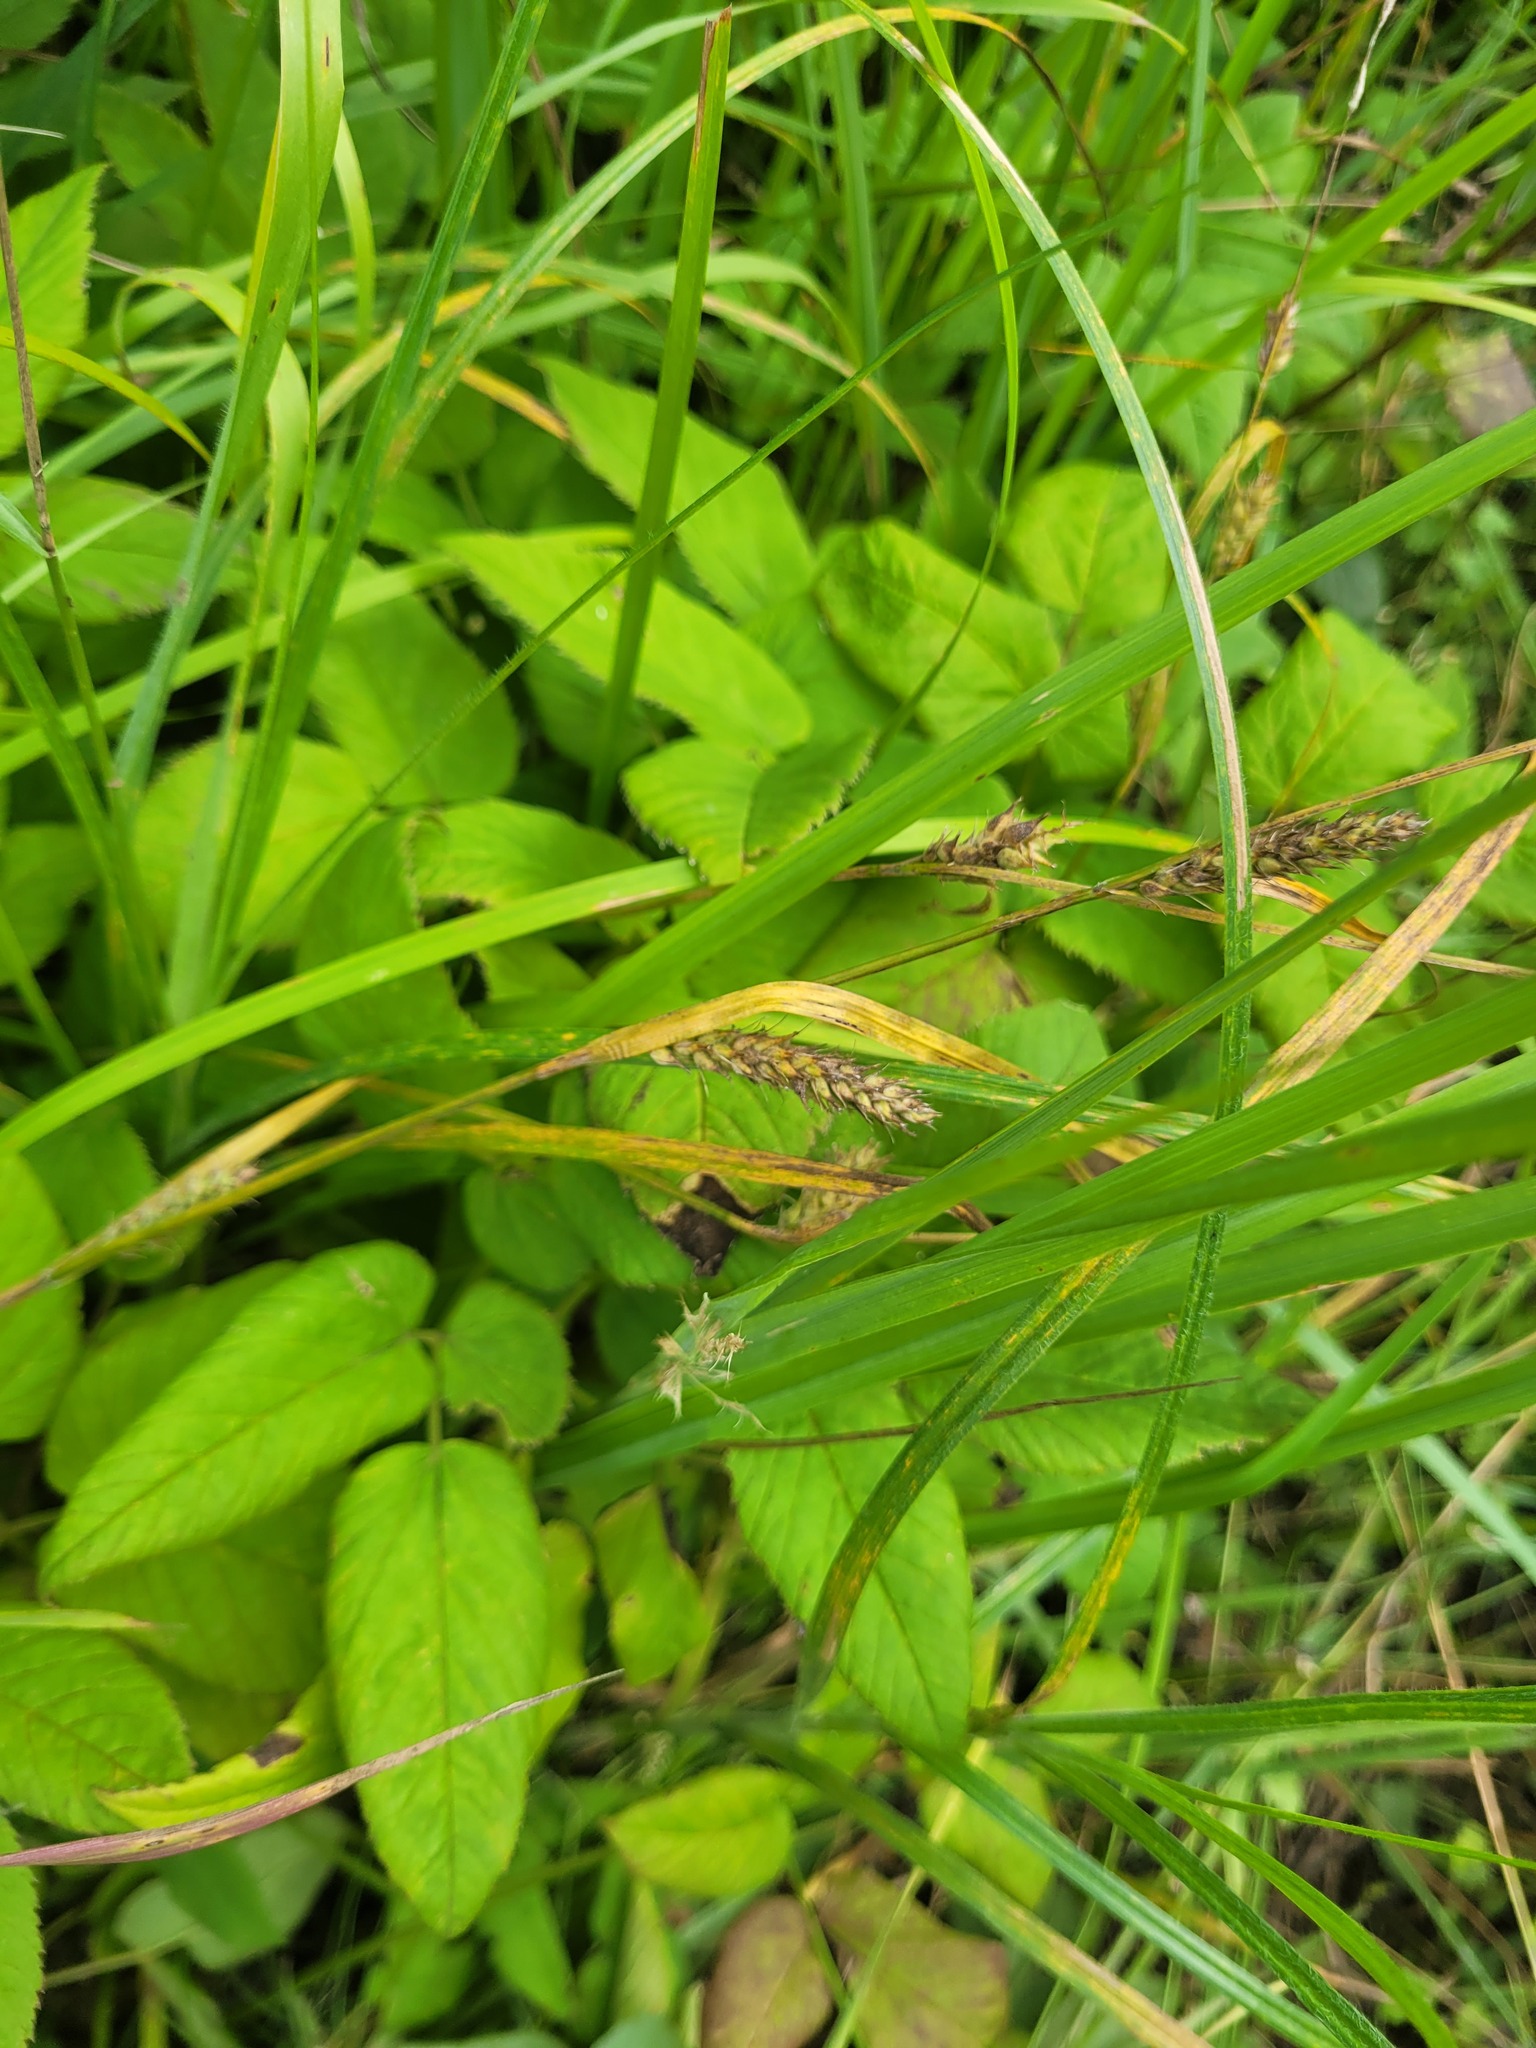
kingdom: Plantae
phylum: Tracheophyta
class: Liliopsida
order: Poales
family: Cyperaceae
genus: Carex
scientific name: Carex hirta
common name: Hairy sedge
